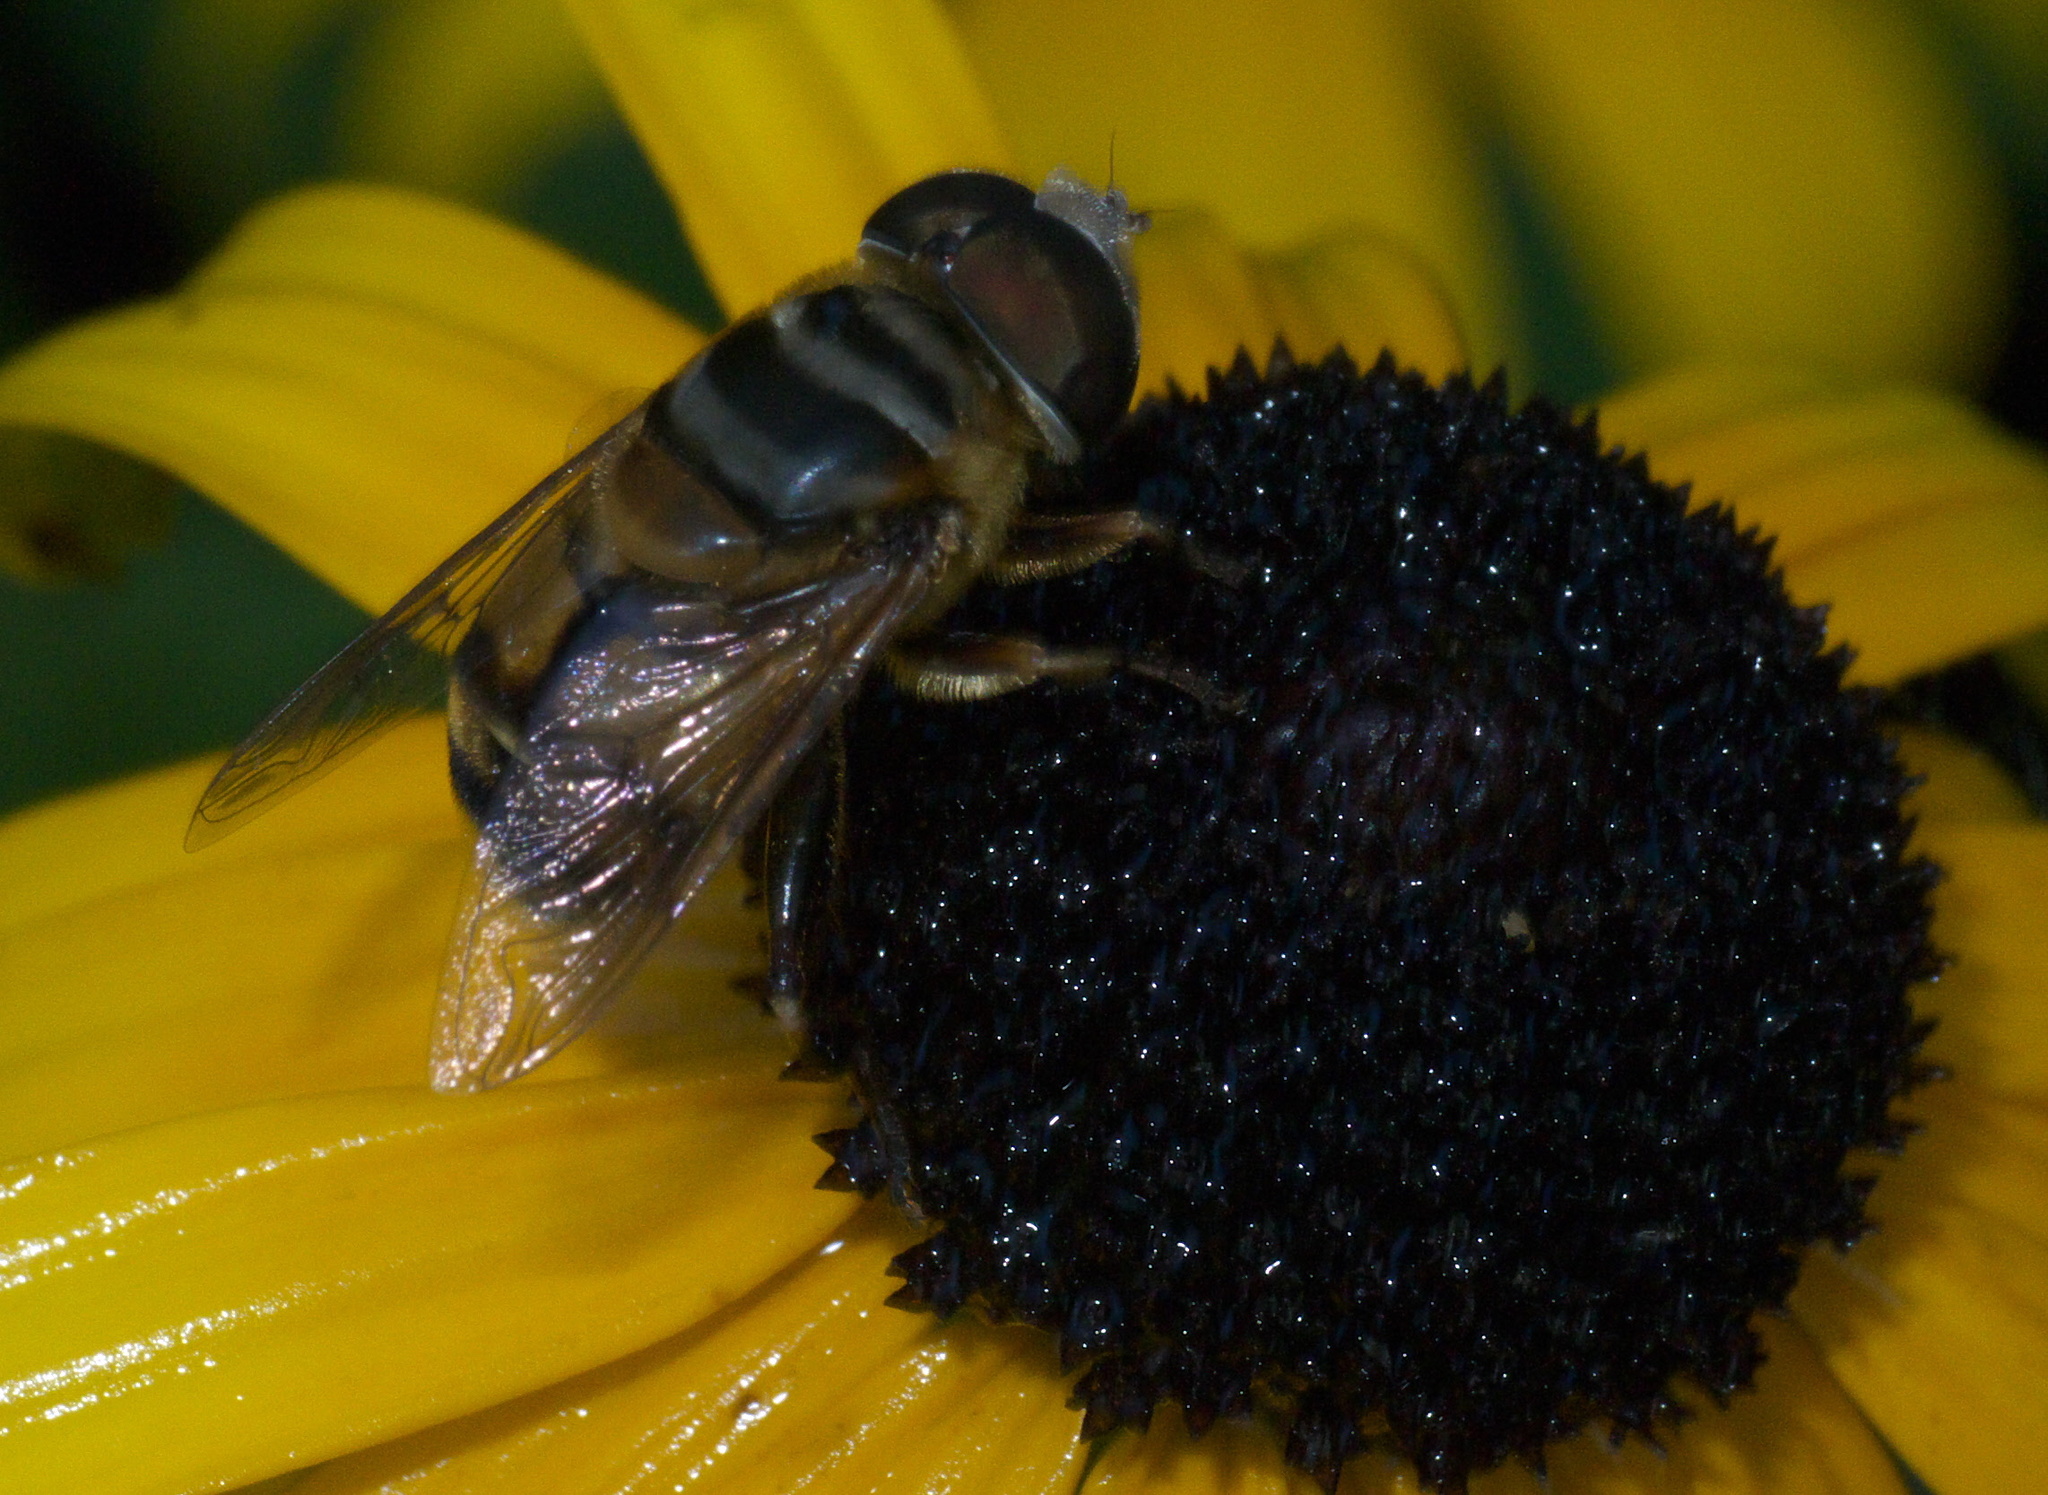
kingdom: Animalia
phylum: Arthropoda
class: Insecta
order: Diptera
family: Syrphidae
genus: Palpada
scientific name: Palpada vinetorum
